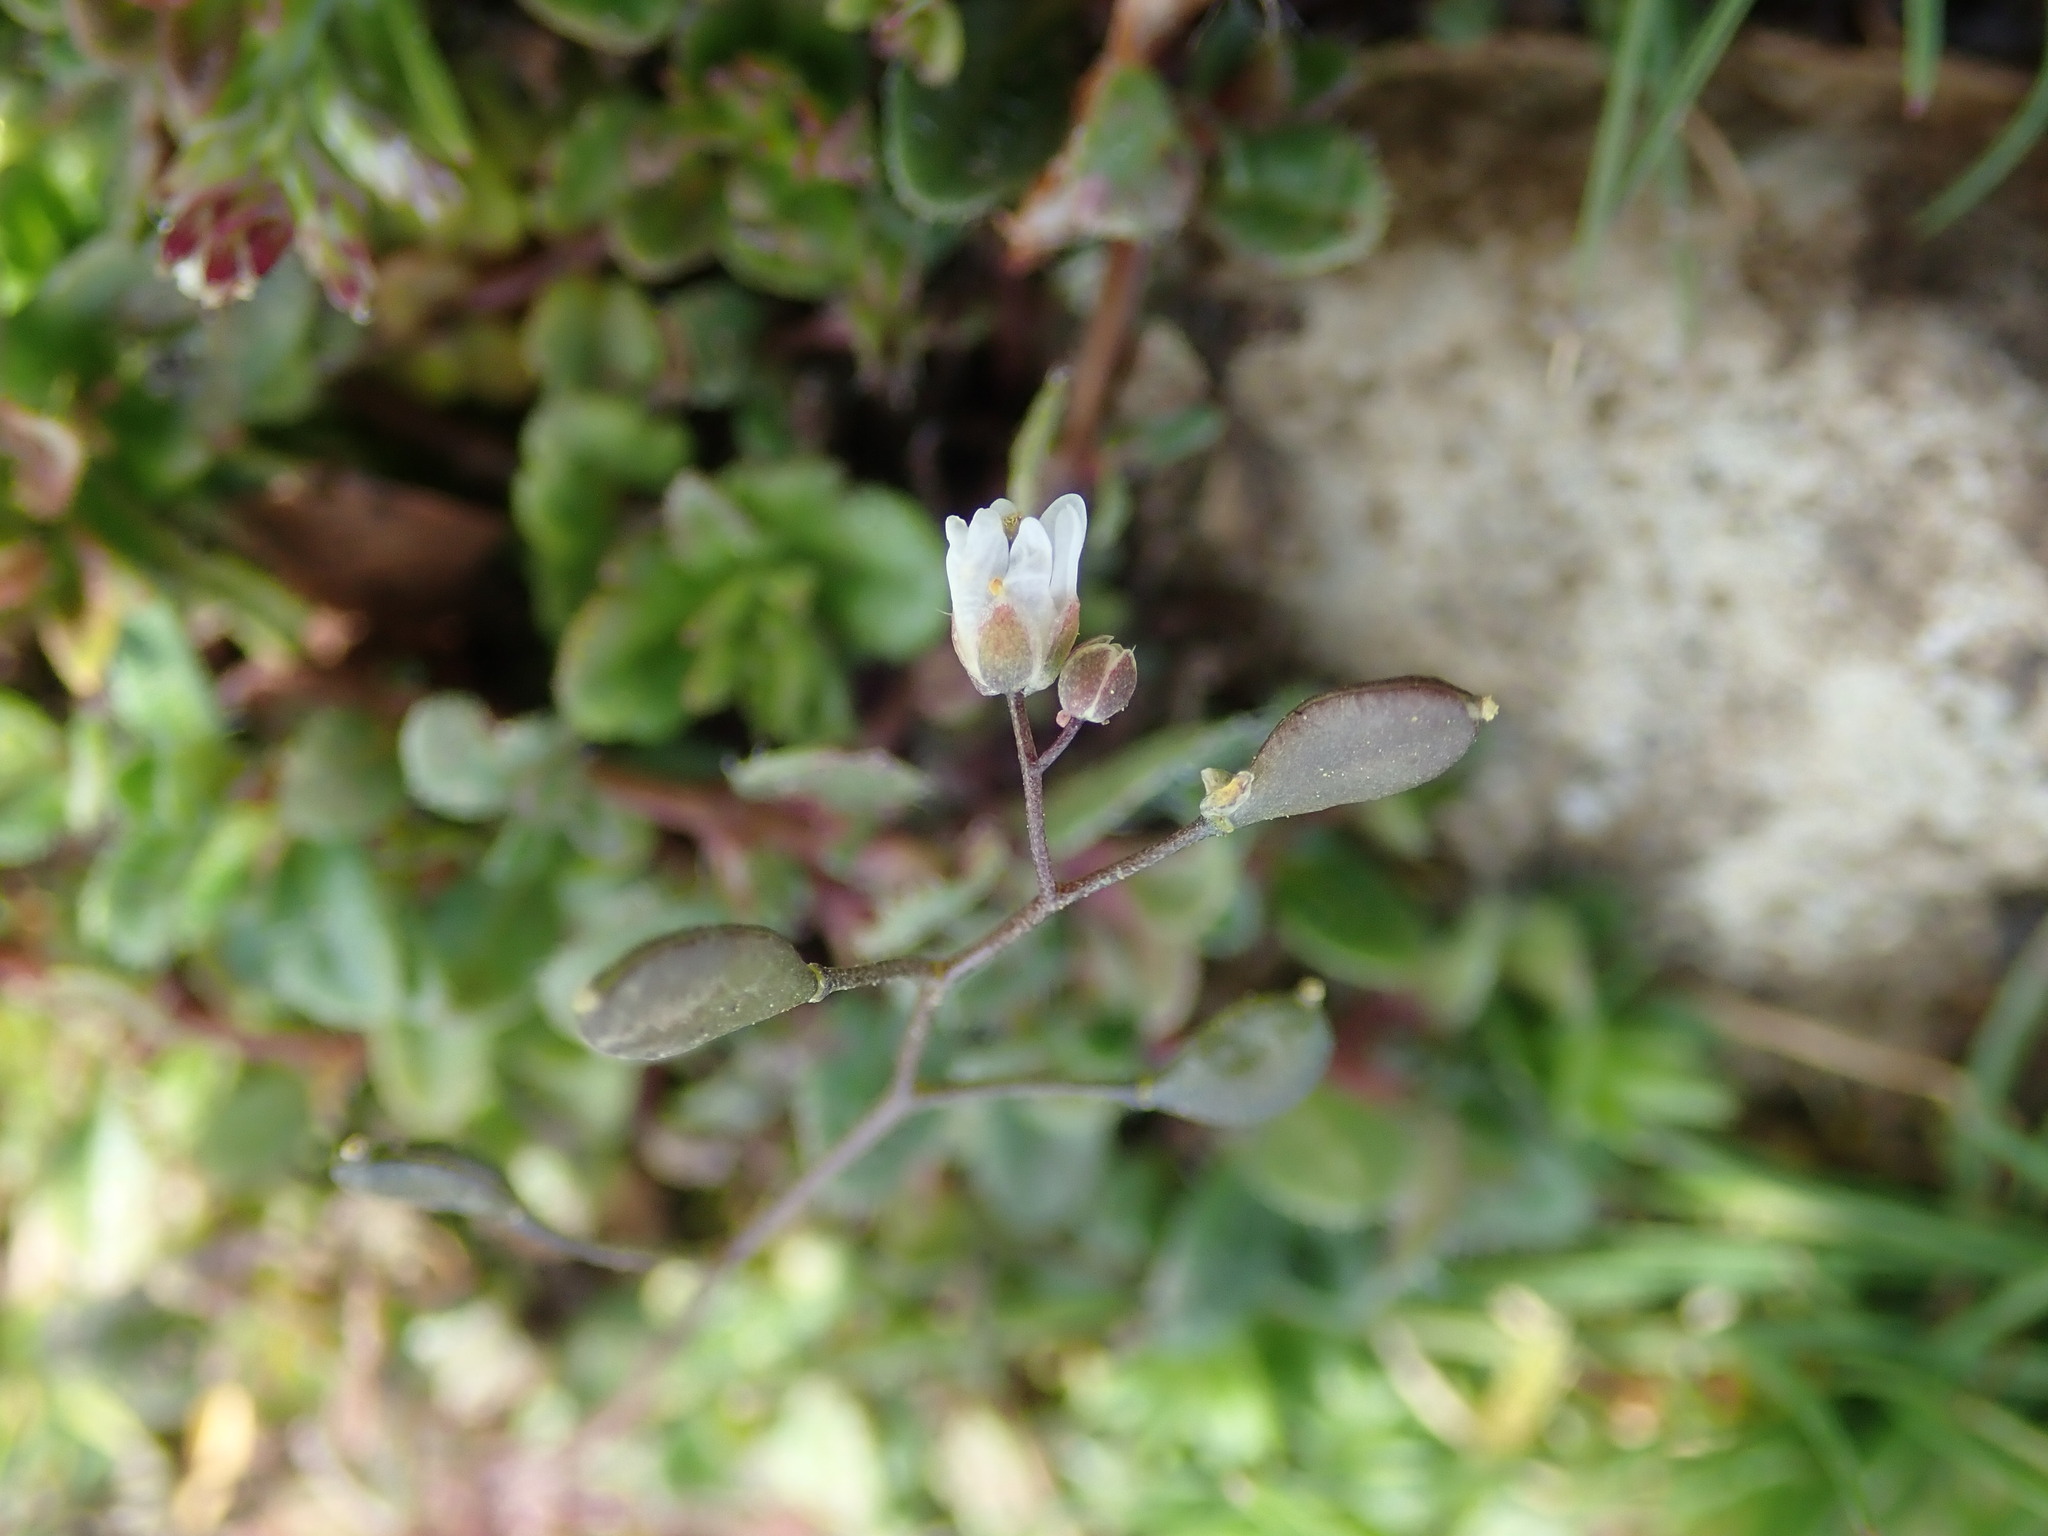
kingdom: Plantae
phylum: Tracheophyta
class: Magnoliopsida
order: Brassicales
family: Brassicaceae
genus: Draba
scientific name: Draba verna
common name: Spring draba
